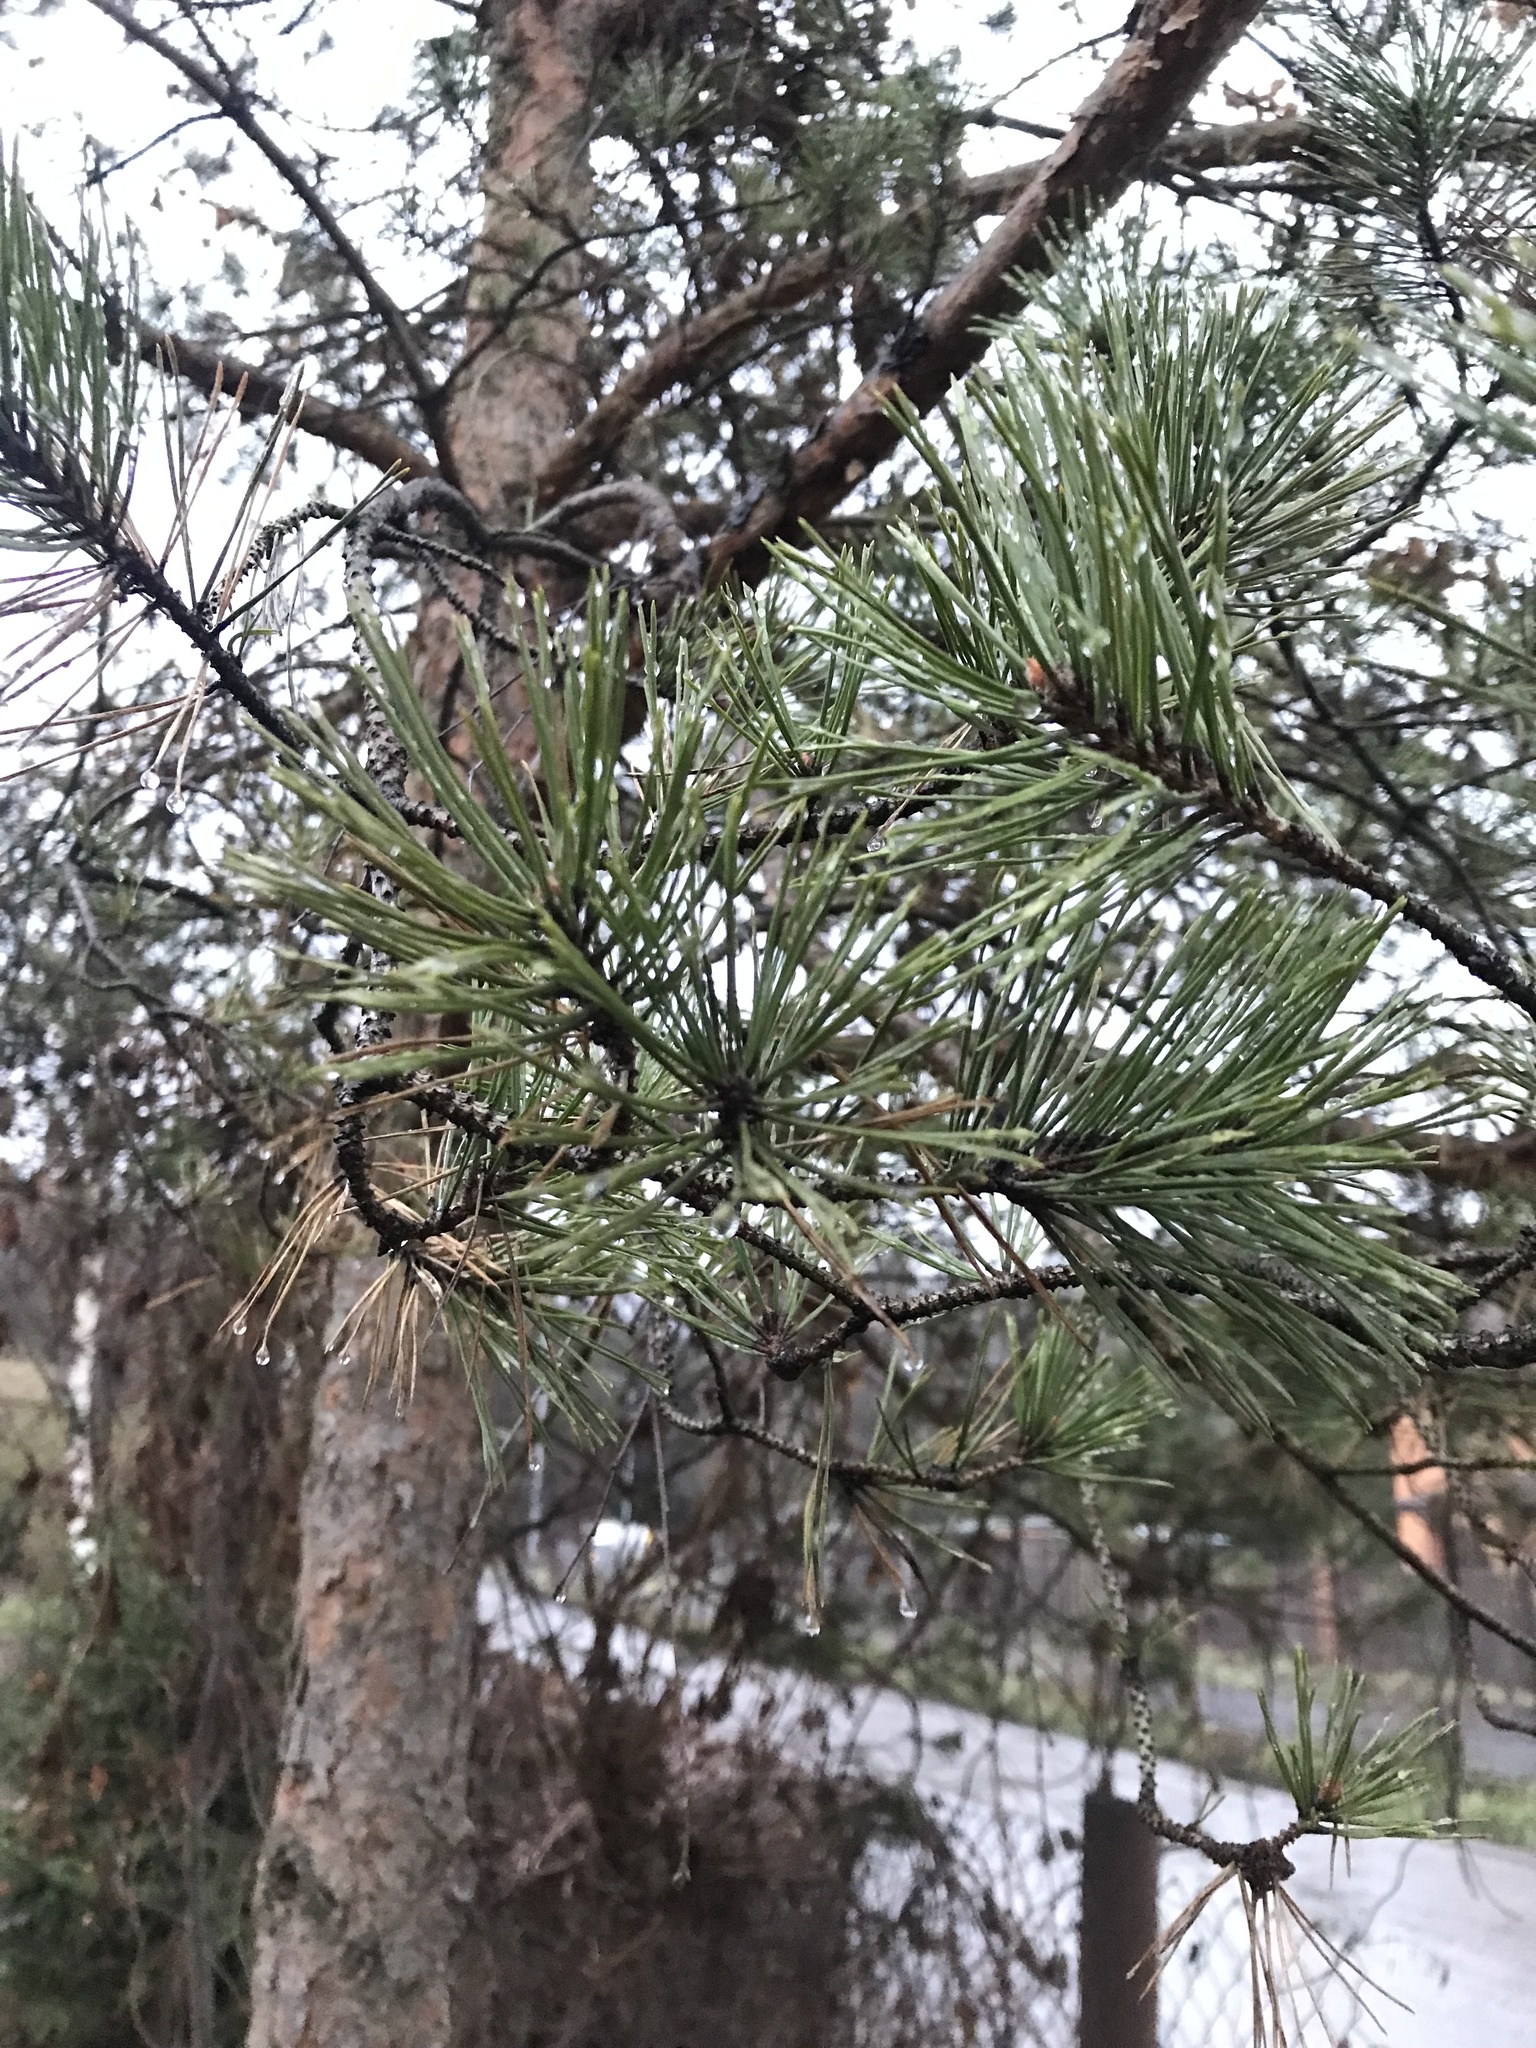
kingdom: Plantae
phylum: Tracheophyta
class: Pinopsida
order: Pinales
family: Pinaceae
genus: Pinus
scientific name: Pinus sylvestris
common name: Scots pine
